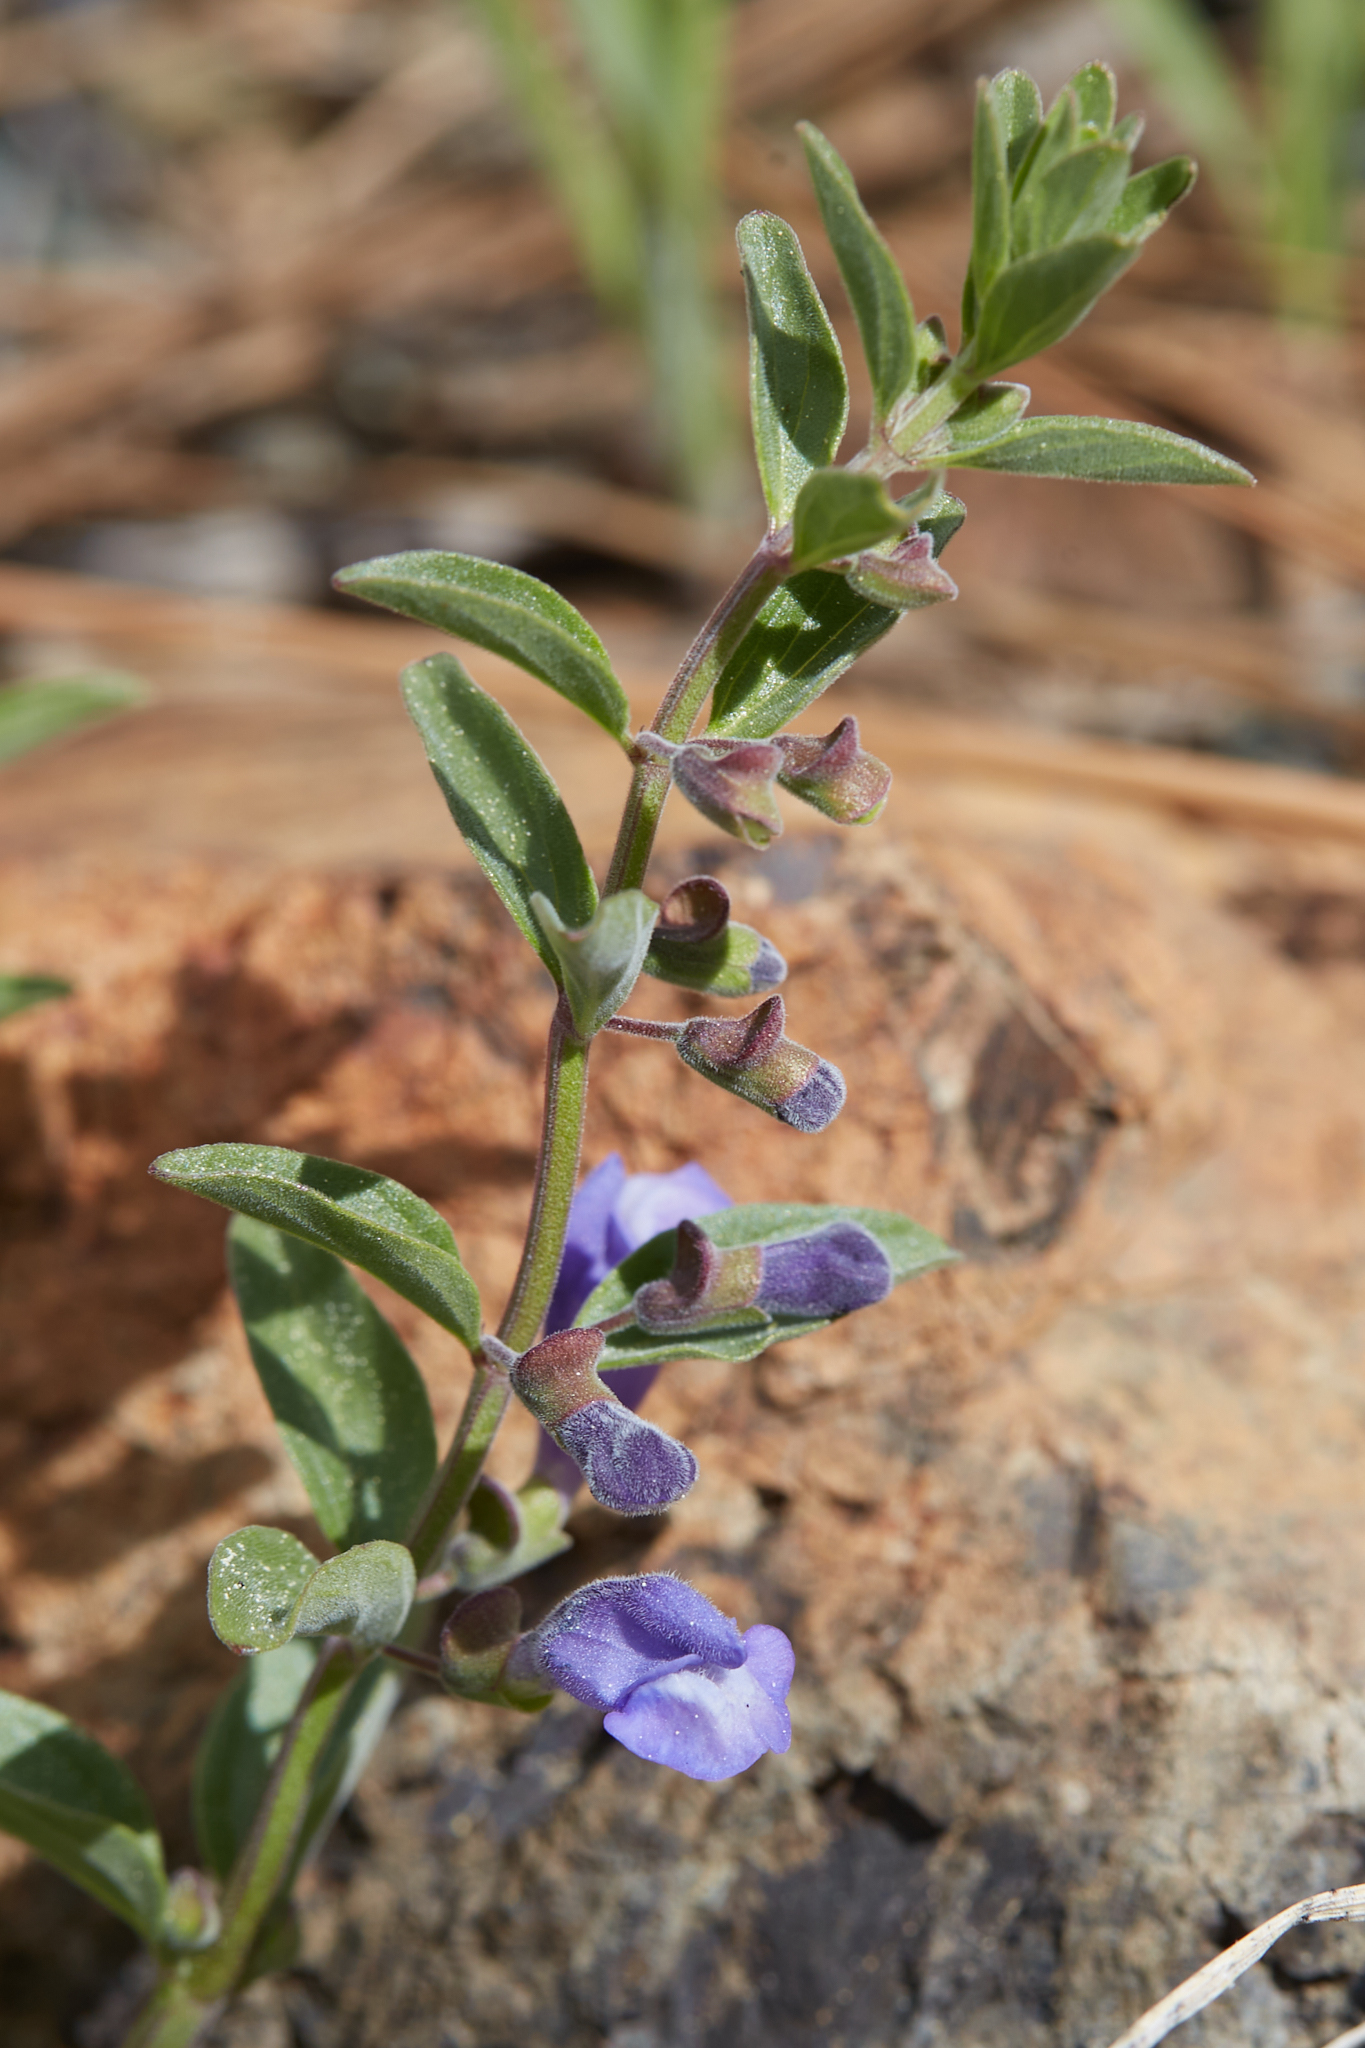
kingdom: Plantae
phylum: Tracheophyta
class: Magnoliopsida
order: Lamiales
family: Lamiaceae
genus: Scutellaria
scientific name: Scutellaria antirrhinoides
